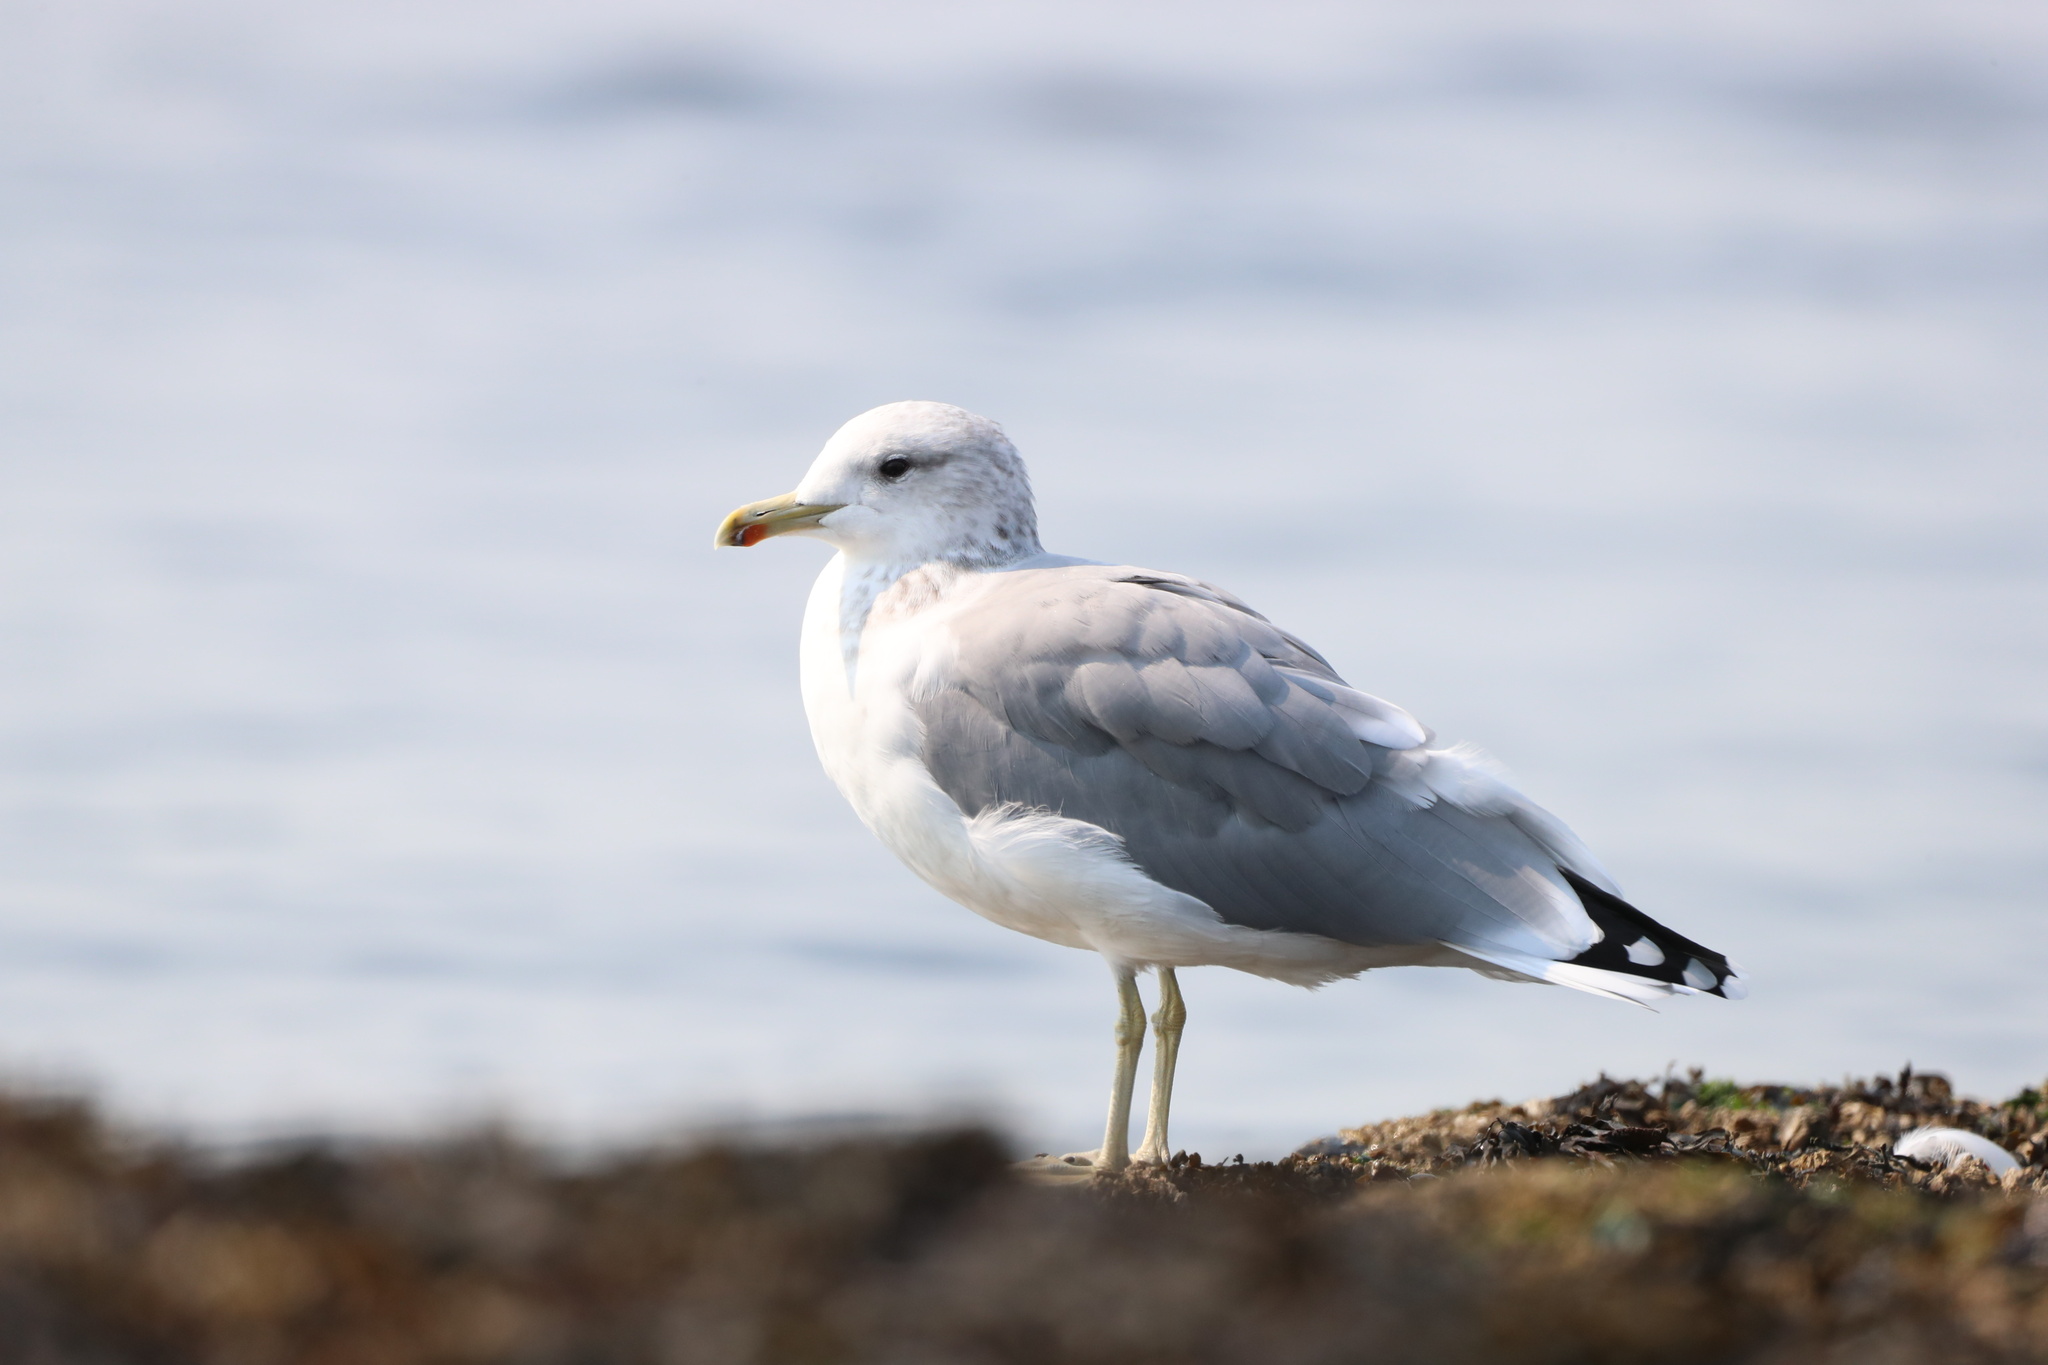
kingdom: Animalia
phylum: Chordata
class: Aves
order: Charadriiformes
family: Laridae
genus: Larus
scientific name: Larus californicus
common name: California gull
